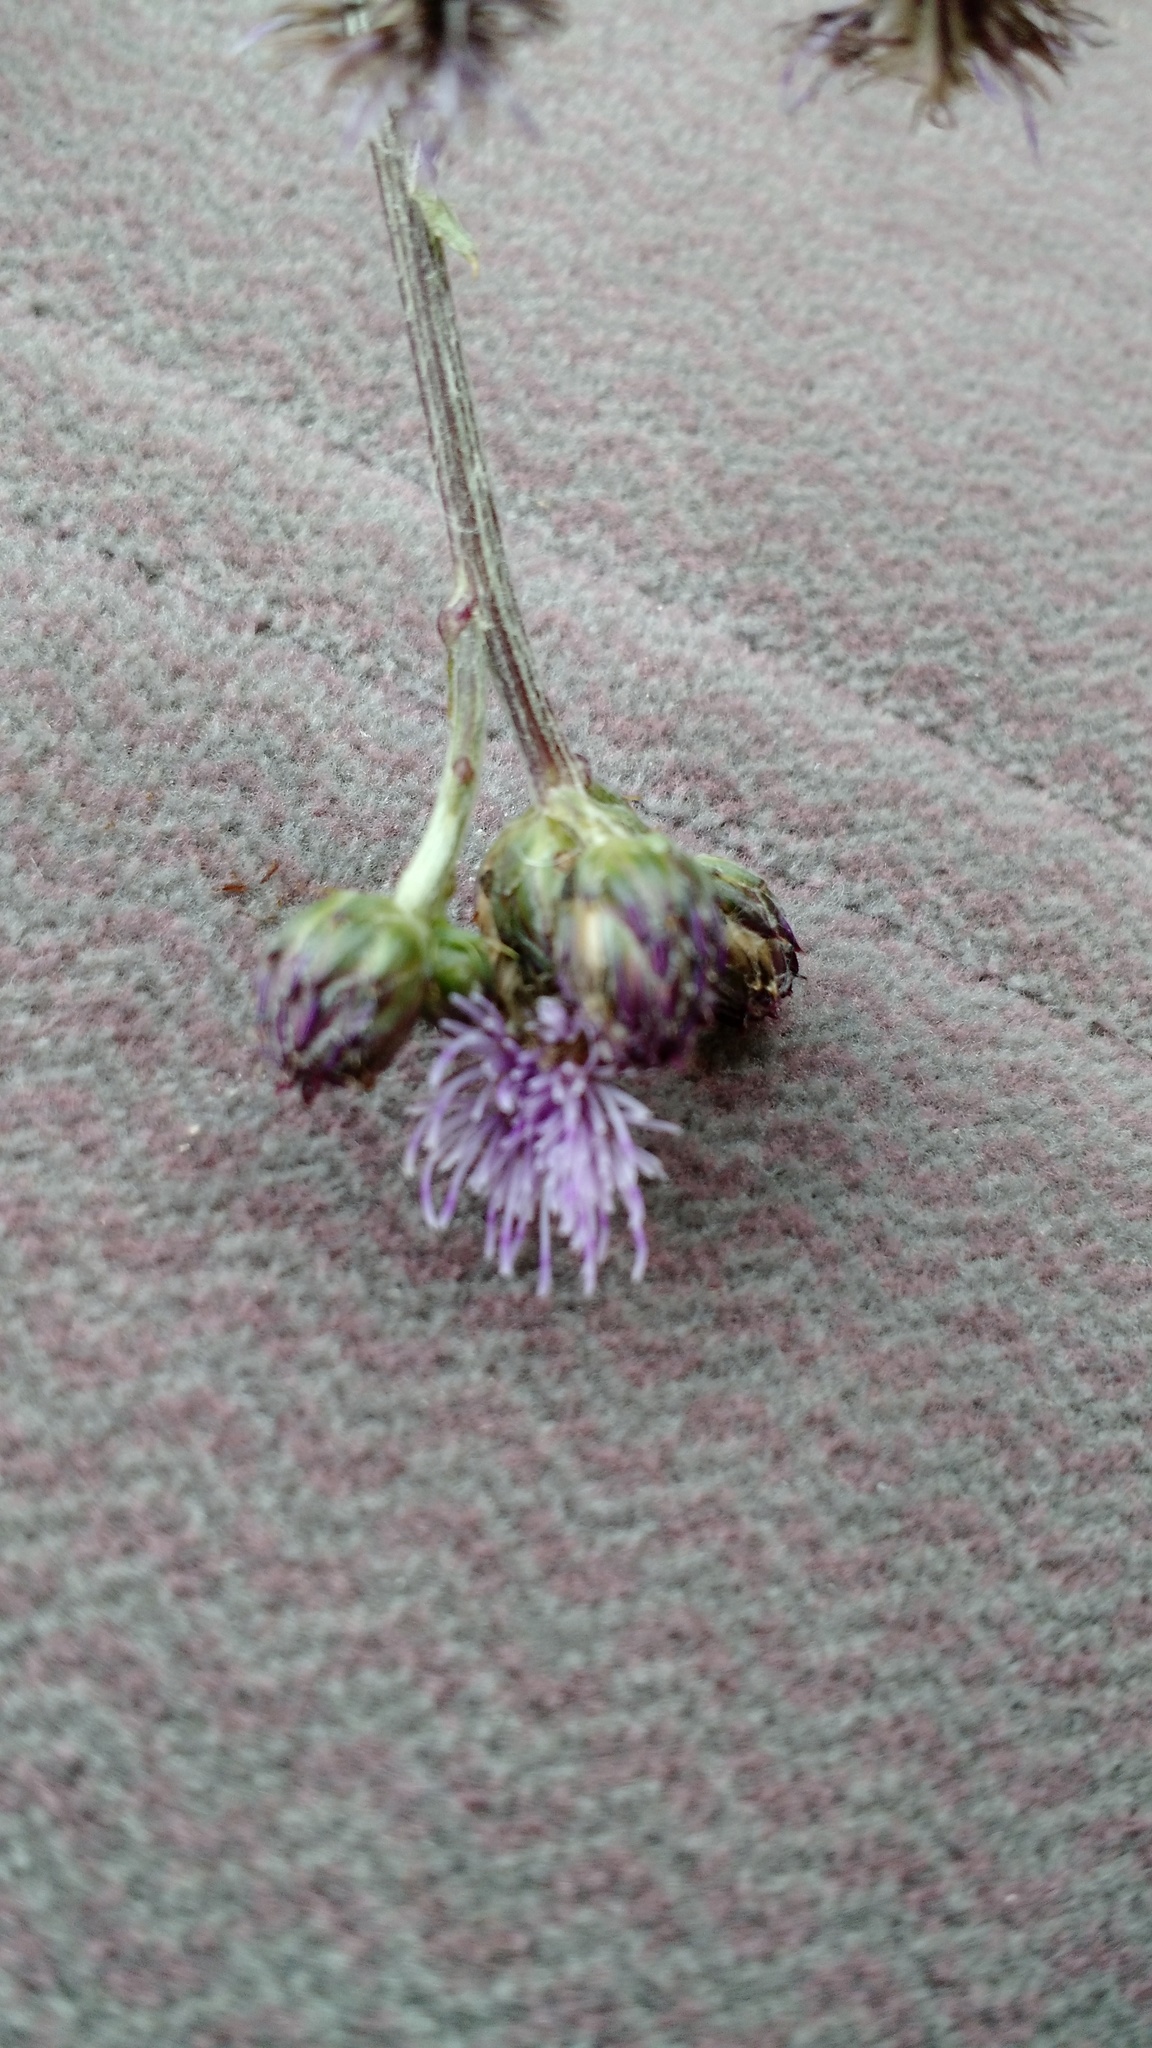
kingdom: Plantae
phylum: Tracheophyta
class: Magnoliopsida
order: Asterales
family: Asteraceae
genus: Cirsium
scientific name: Cirsium arvense
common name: Creeping thistle
